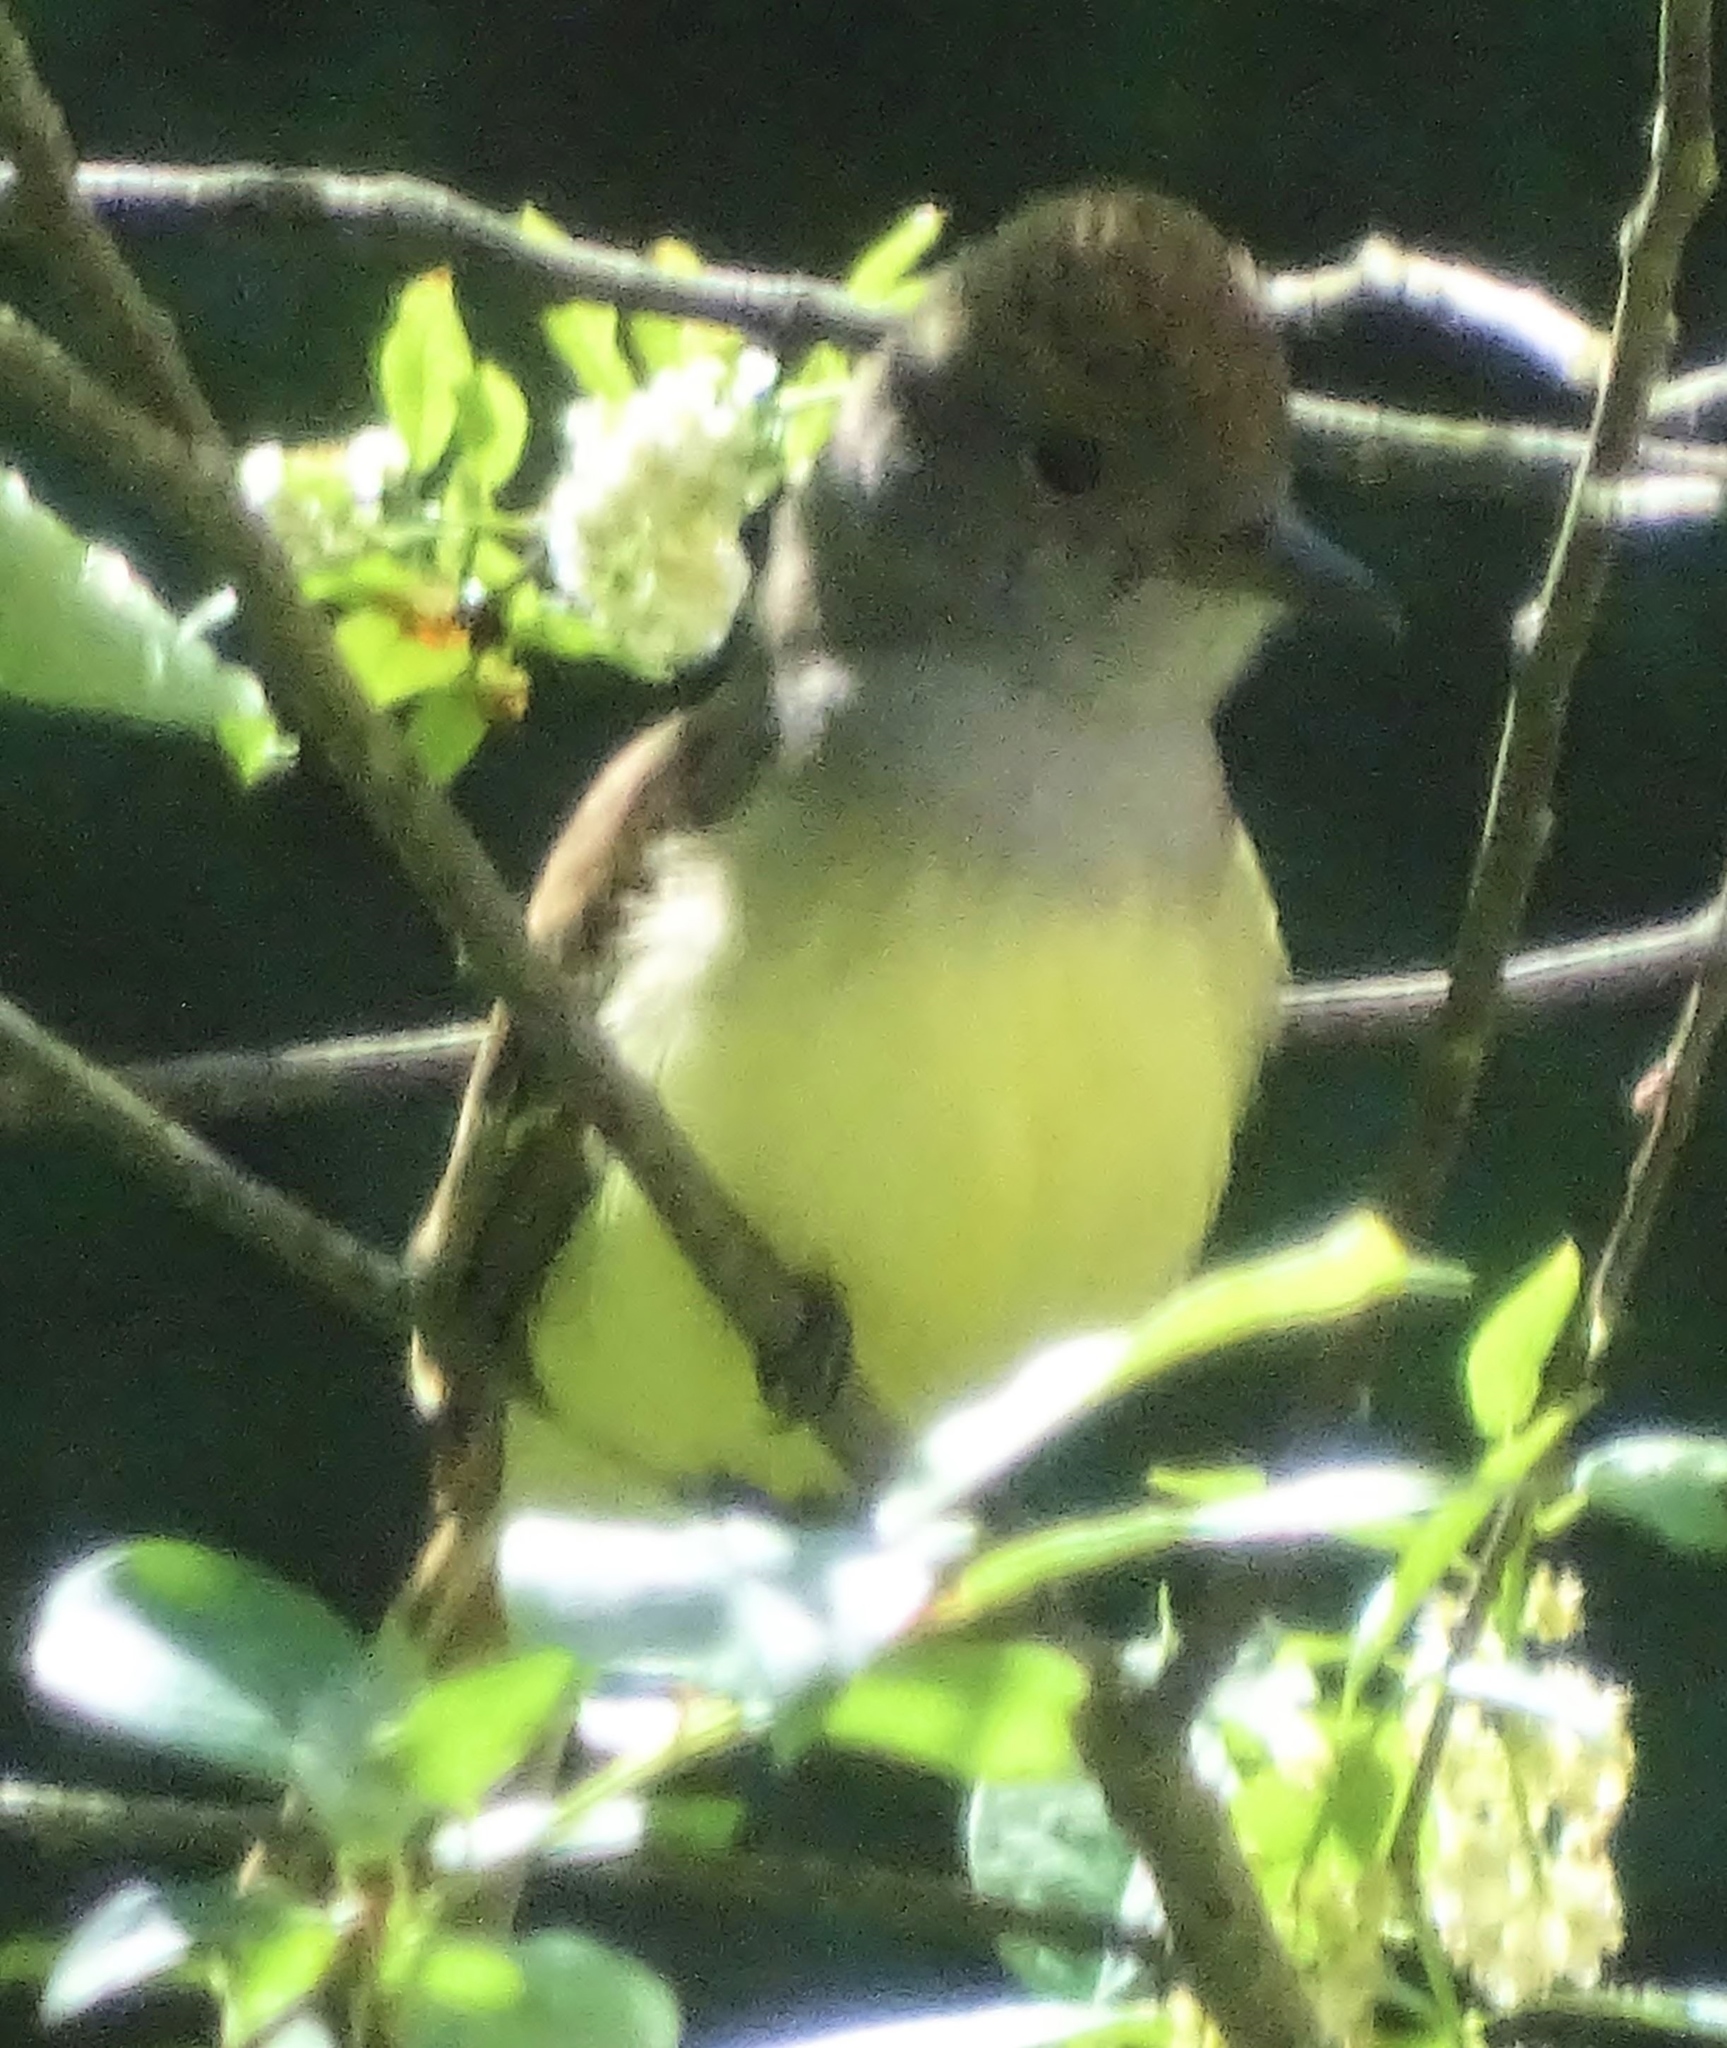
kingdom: Animalia
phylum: Chordata
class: Aves
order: Passeriformes
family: Tyrannidae
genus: Myiarchus
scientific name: Myiarchus crinitus
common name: Great crested flycatcher
